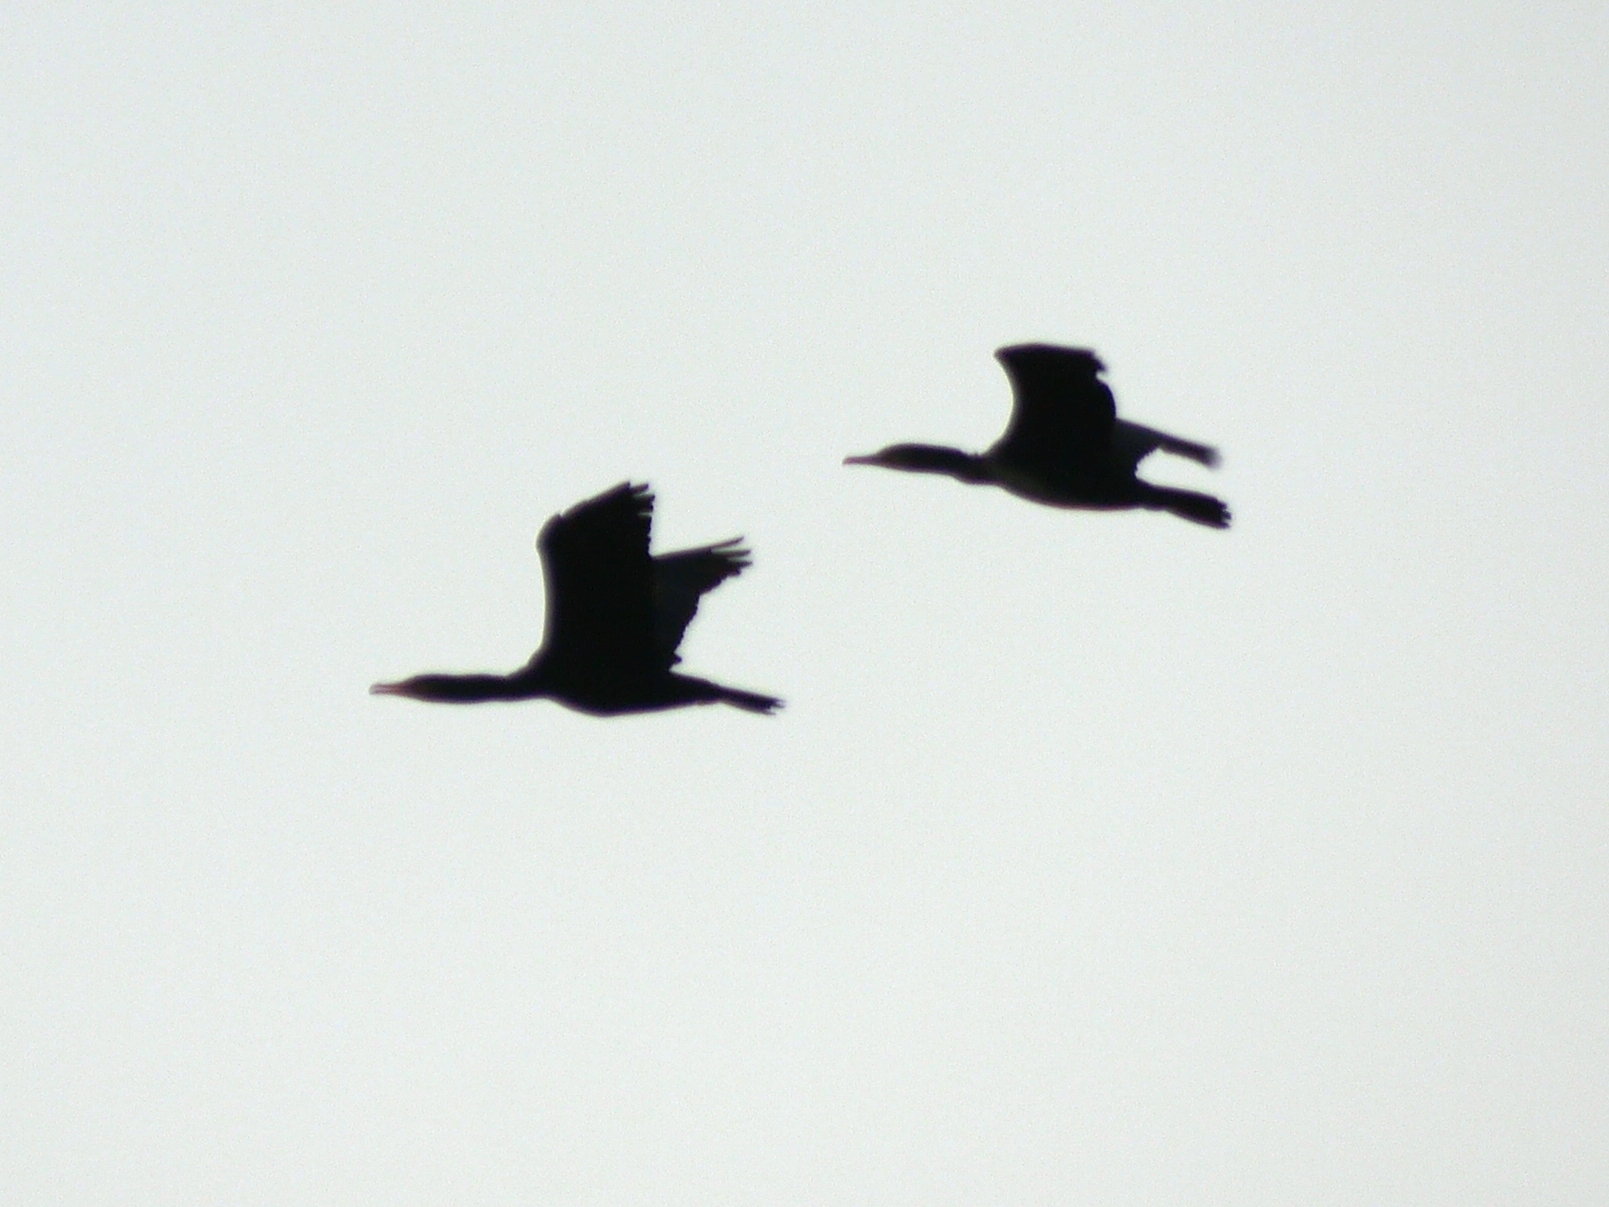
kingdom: Animalia
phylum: Chordata
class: Aves
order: Suliformes
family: Phalacrocoracidae
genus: Phalacrocorax
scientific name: Phalacrocorax carbo
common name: Great cormorant
